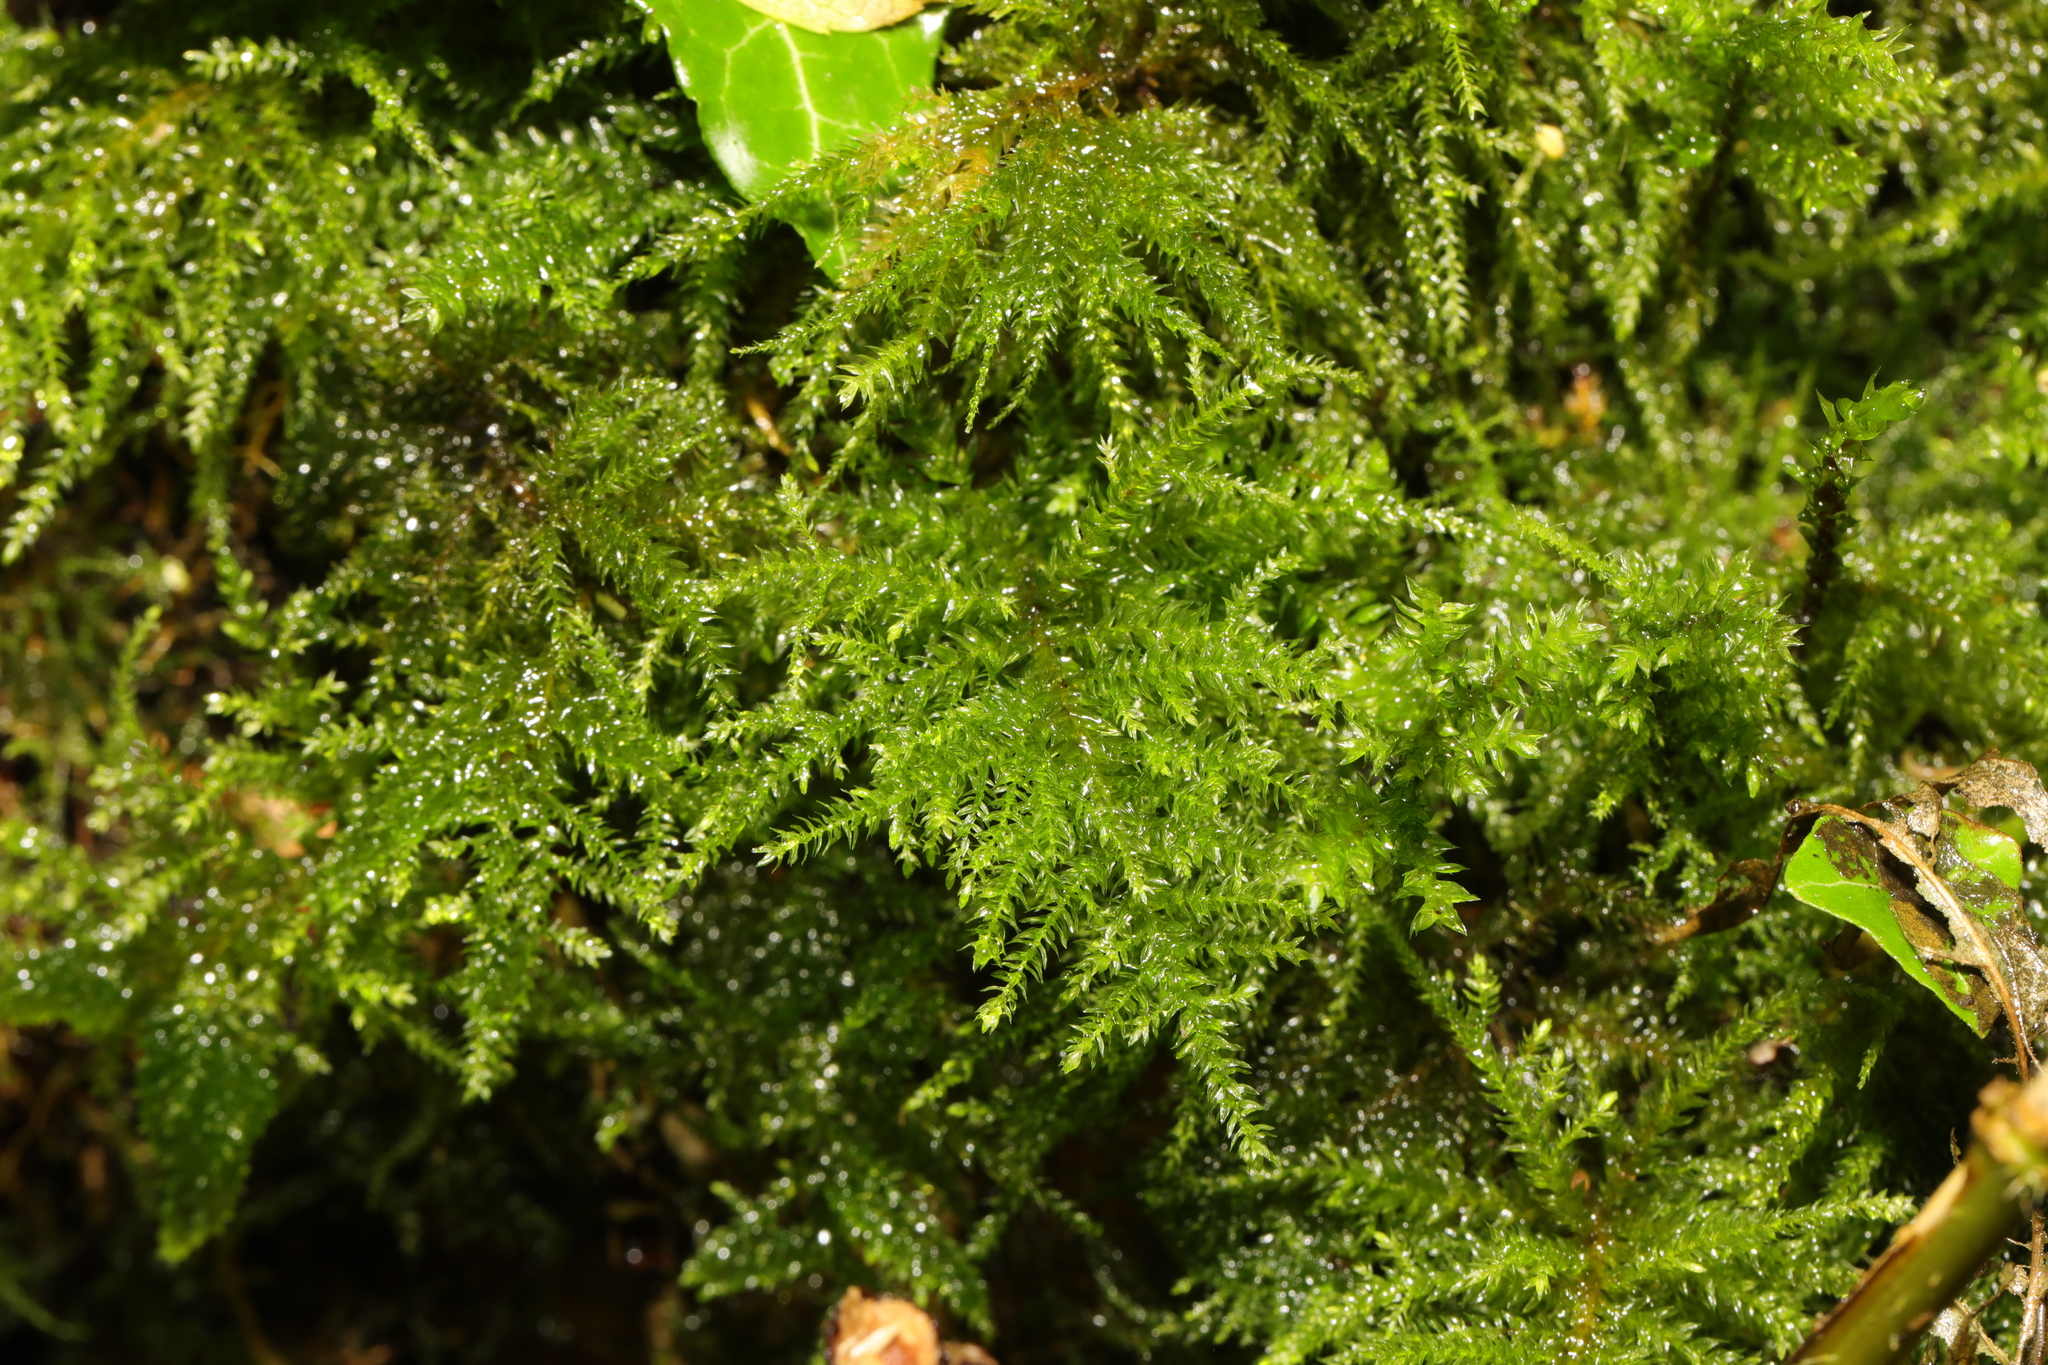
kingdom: Plantae
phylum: Bryophyta
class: Bryopsida
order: Hypnales
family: Brachytheciaceae
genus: Kindbergia
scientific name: Kindbergia praelonga
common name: Slender beaked moss
